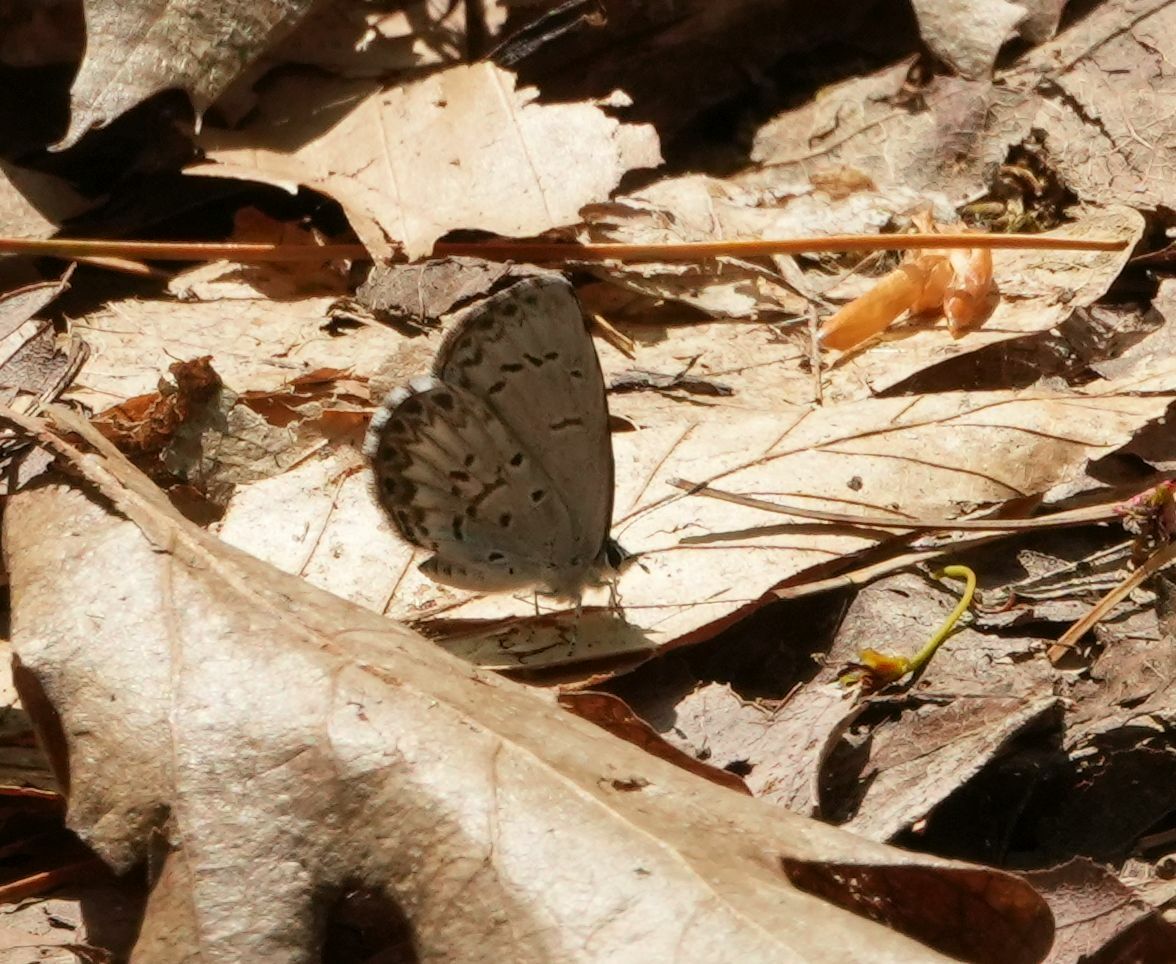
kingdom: Animalia
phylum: Arthropoda
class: Insecta
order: Lepidoptera
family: Lycaenidae
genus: Celastrina
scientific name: Celastrina lucia
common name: Lucia azure
